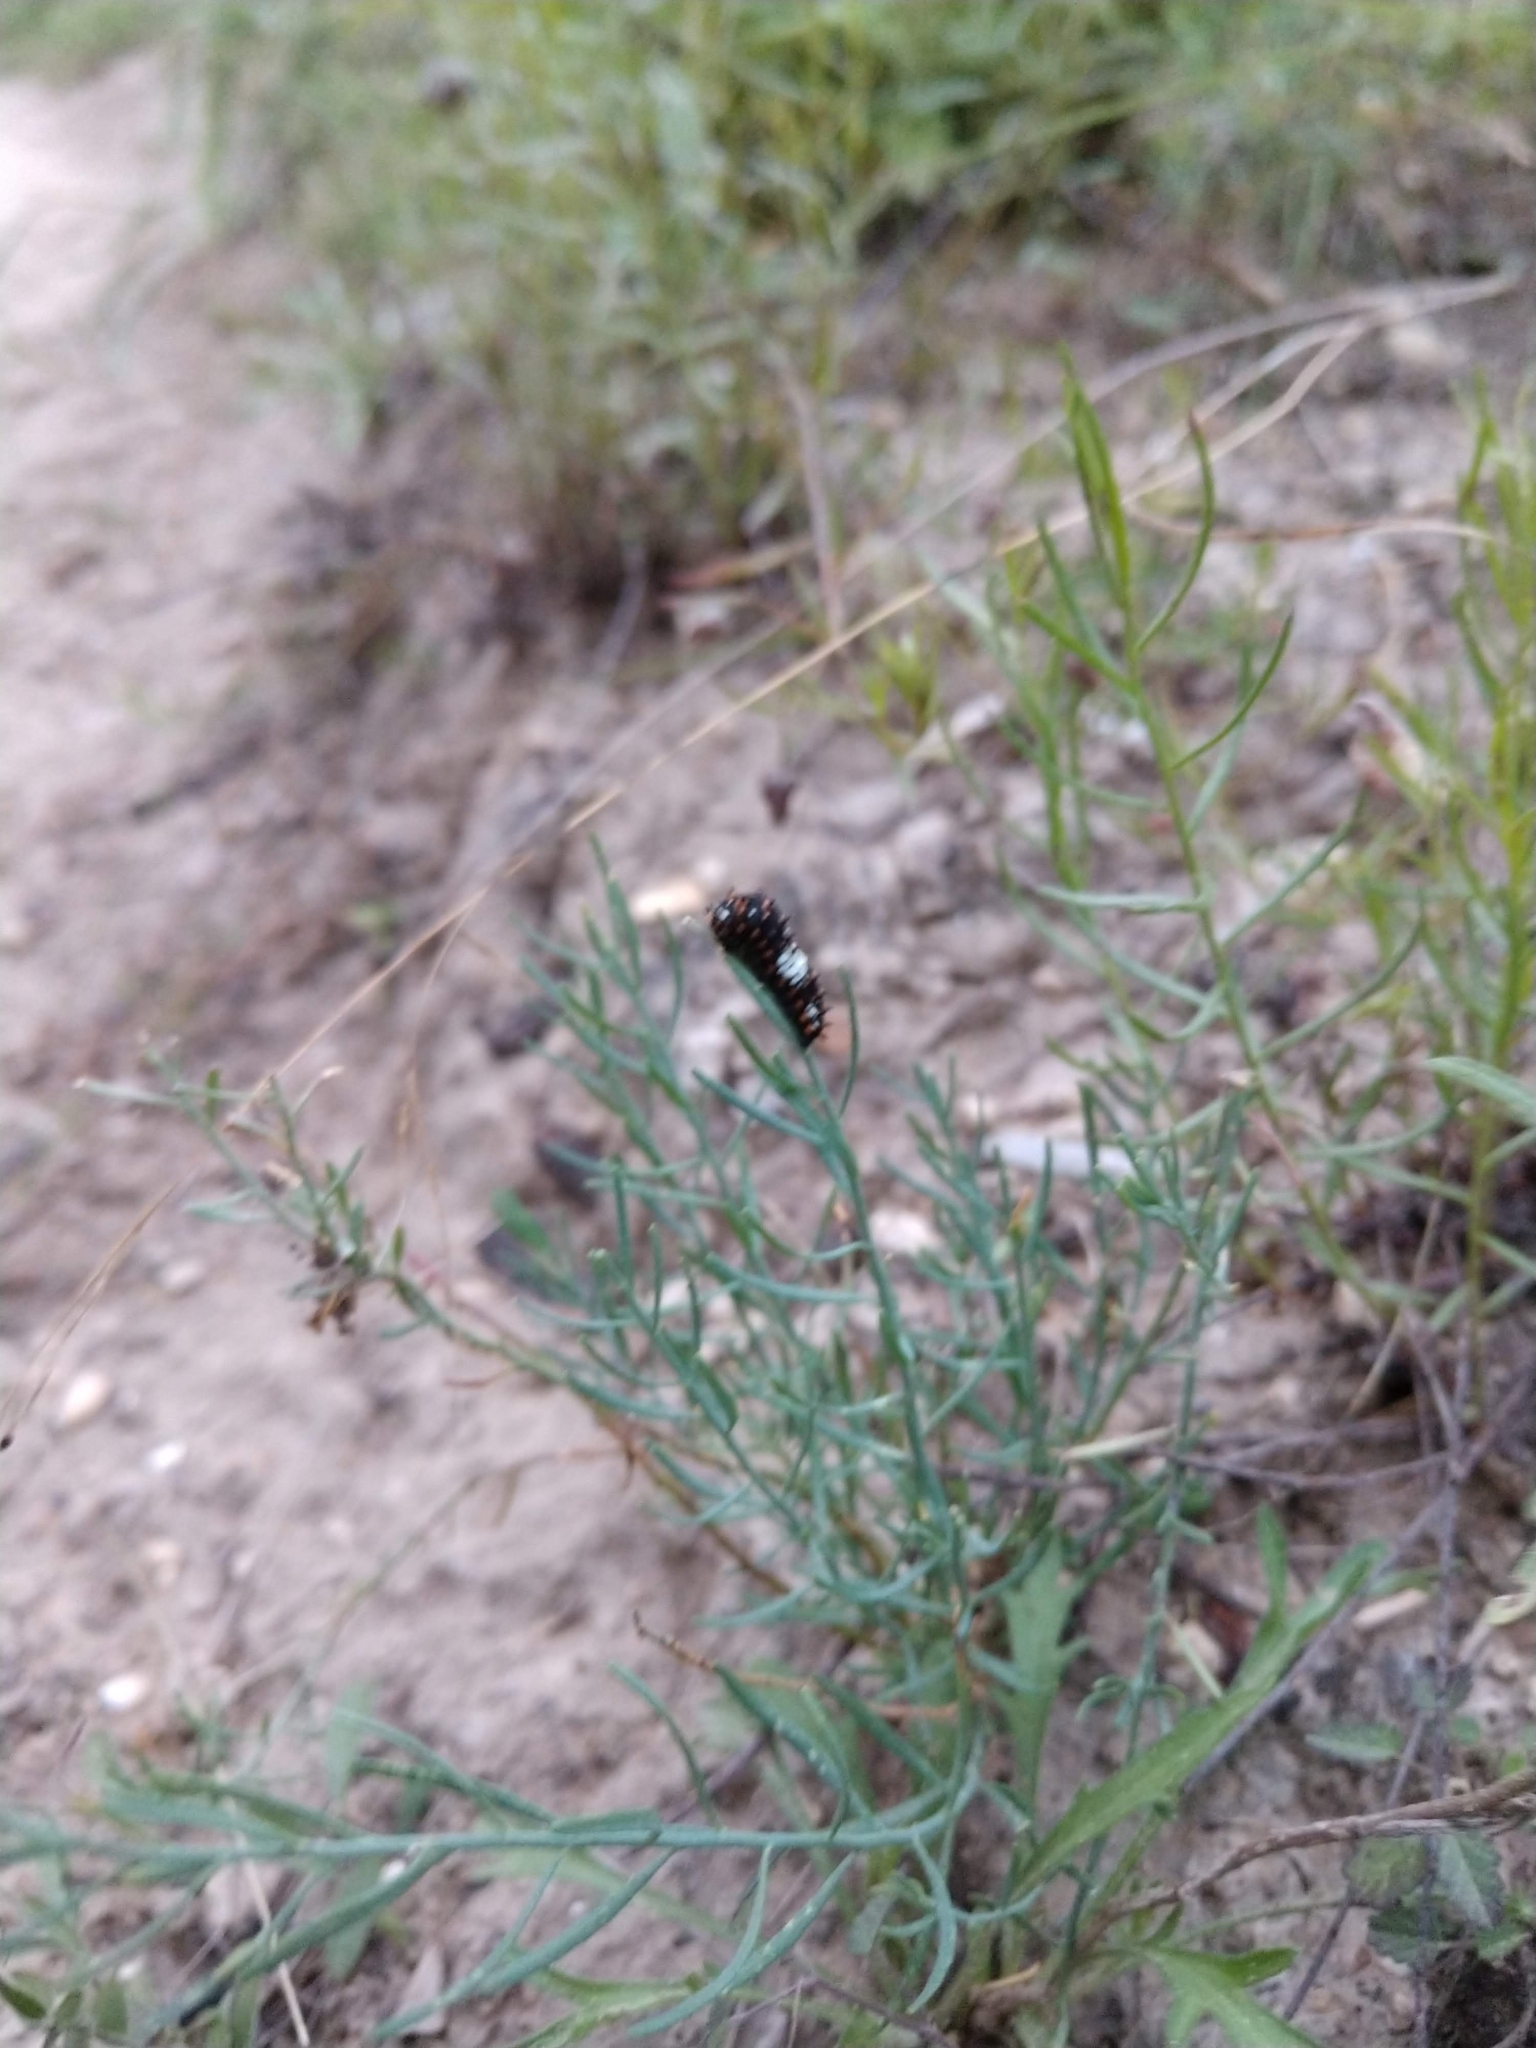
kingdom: Animalia
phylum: Arthropoda
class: Insecta
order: Lepidoptera
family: Papilionidae
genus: Papilio
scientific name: Papilio polyxenes
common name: Black swallowtail
